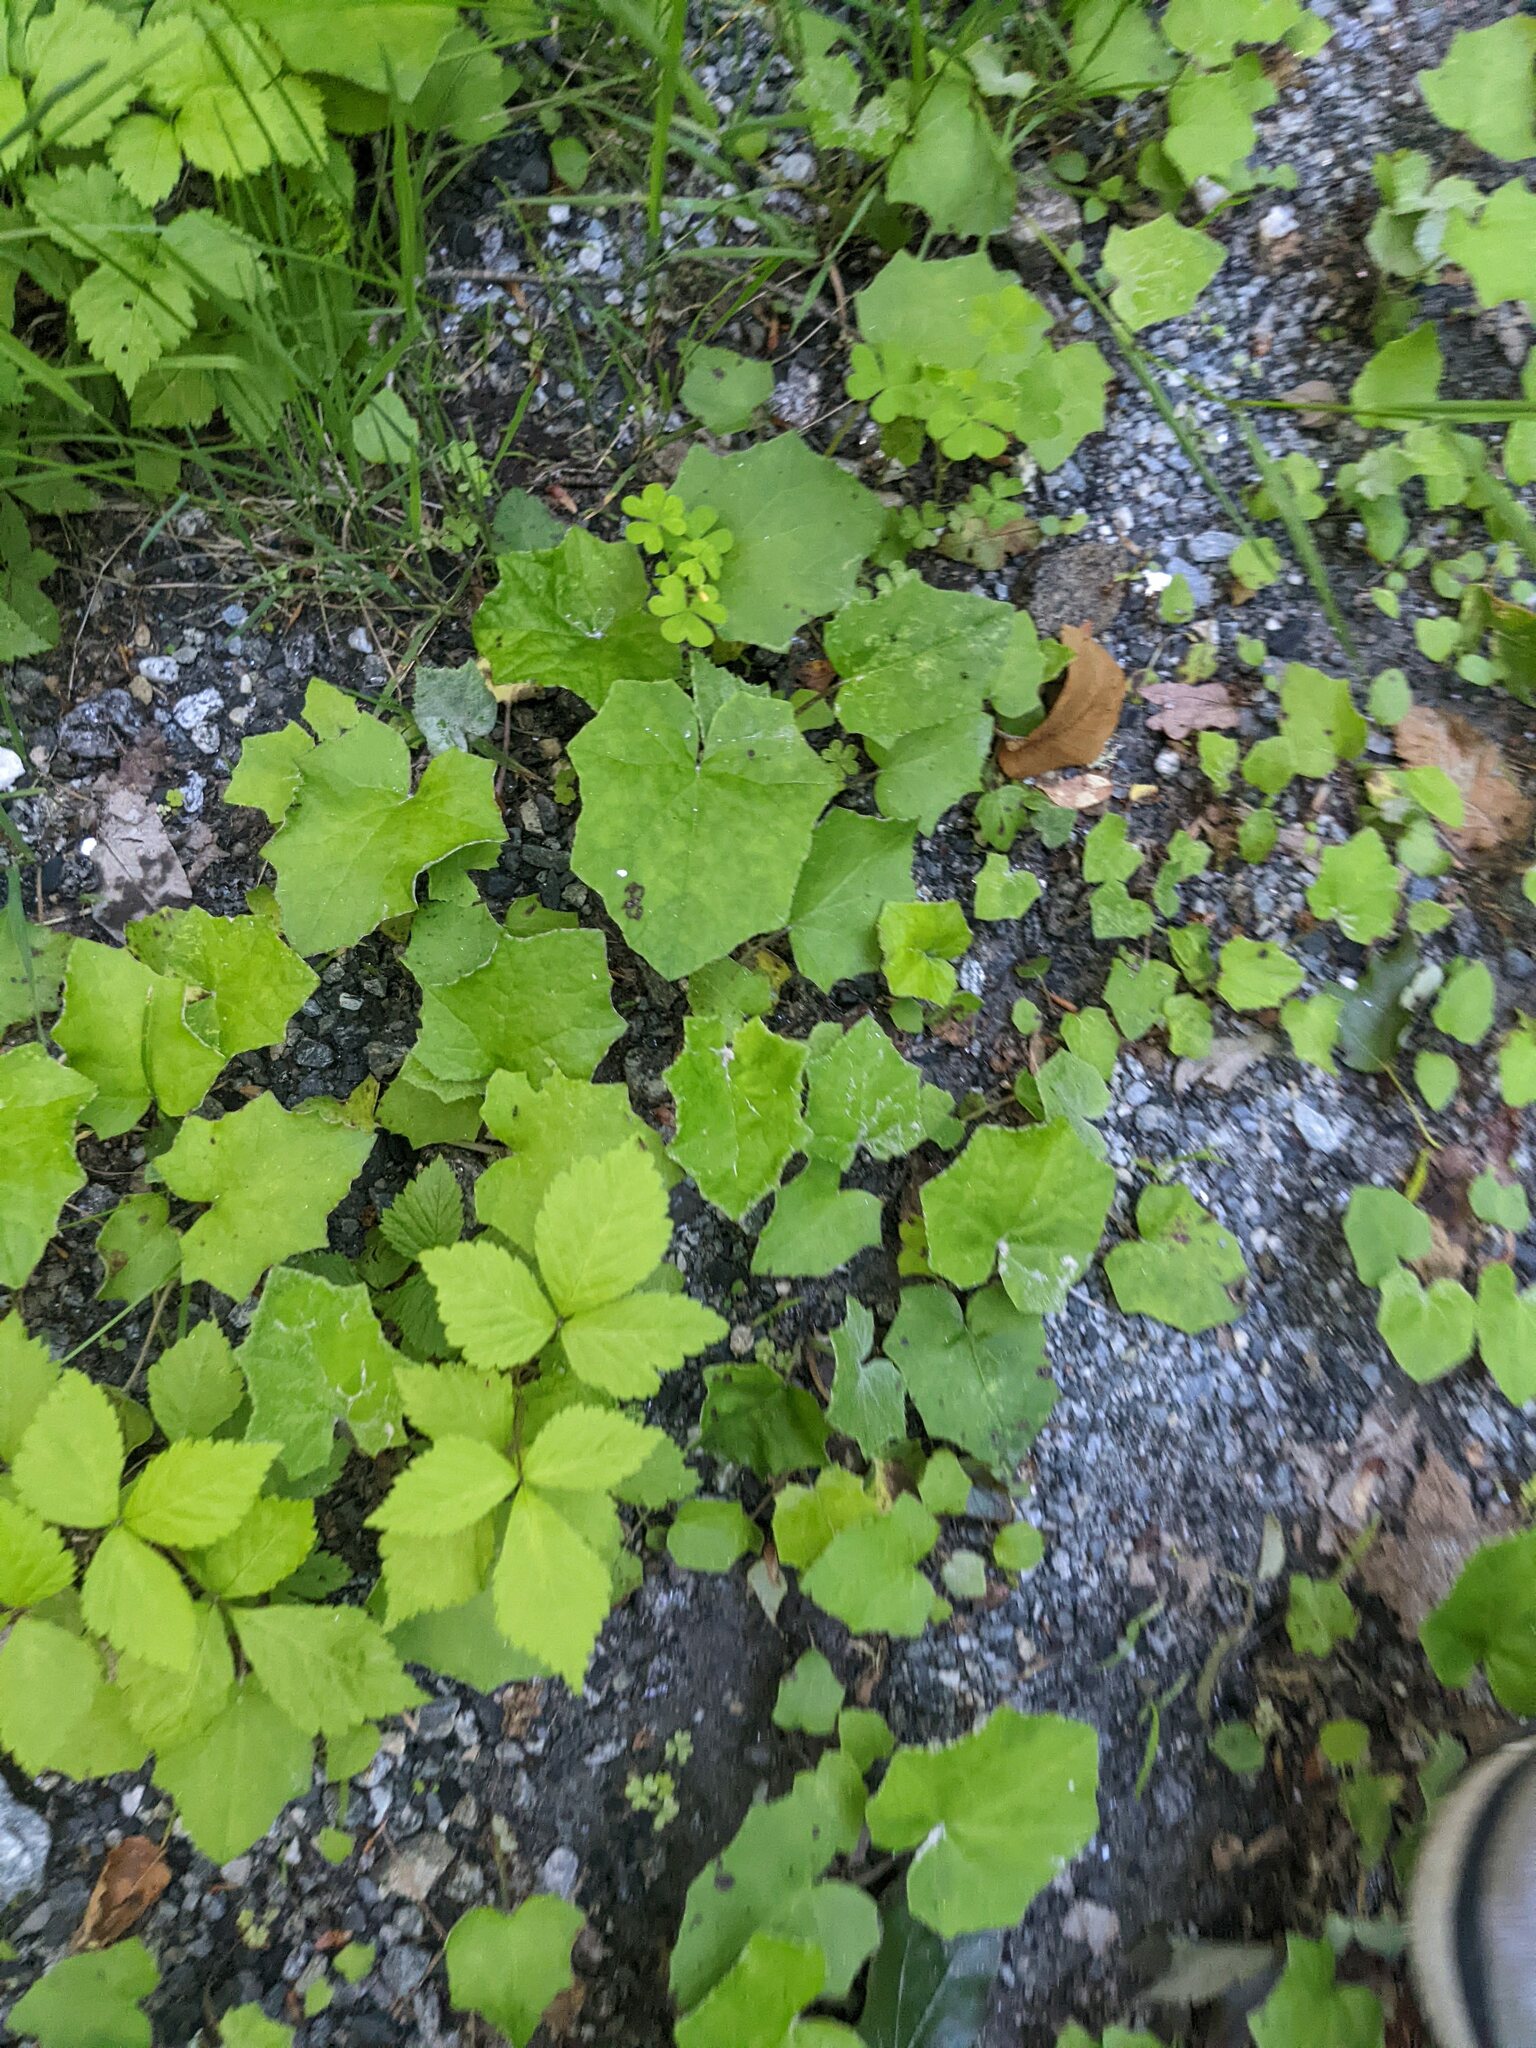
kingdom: Plantae
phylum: Tracheophyta
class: Magnoliopsida
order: Asterales
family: Asteraceae
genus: Tussilago
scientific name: Tussilago farfara
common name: Coltsfoot
